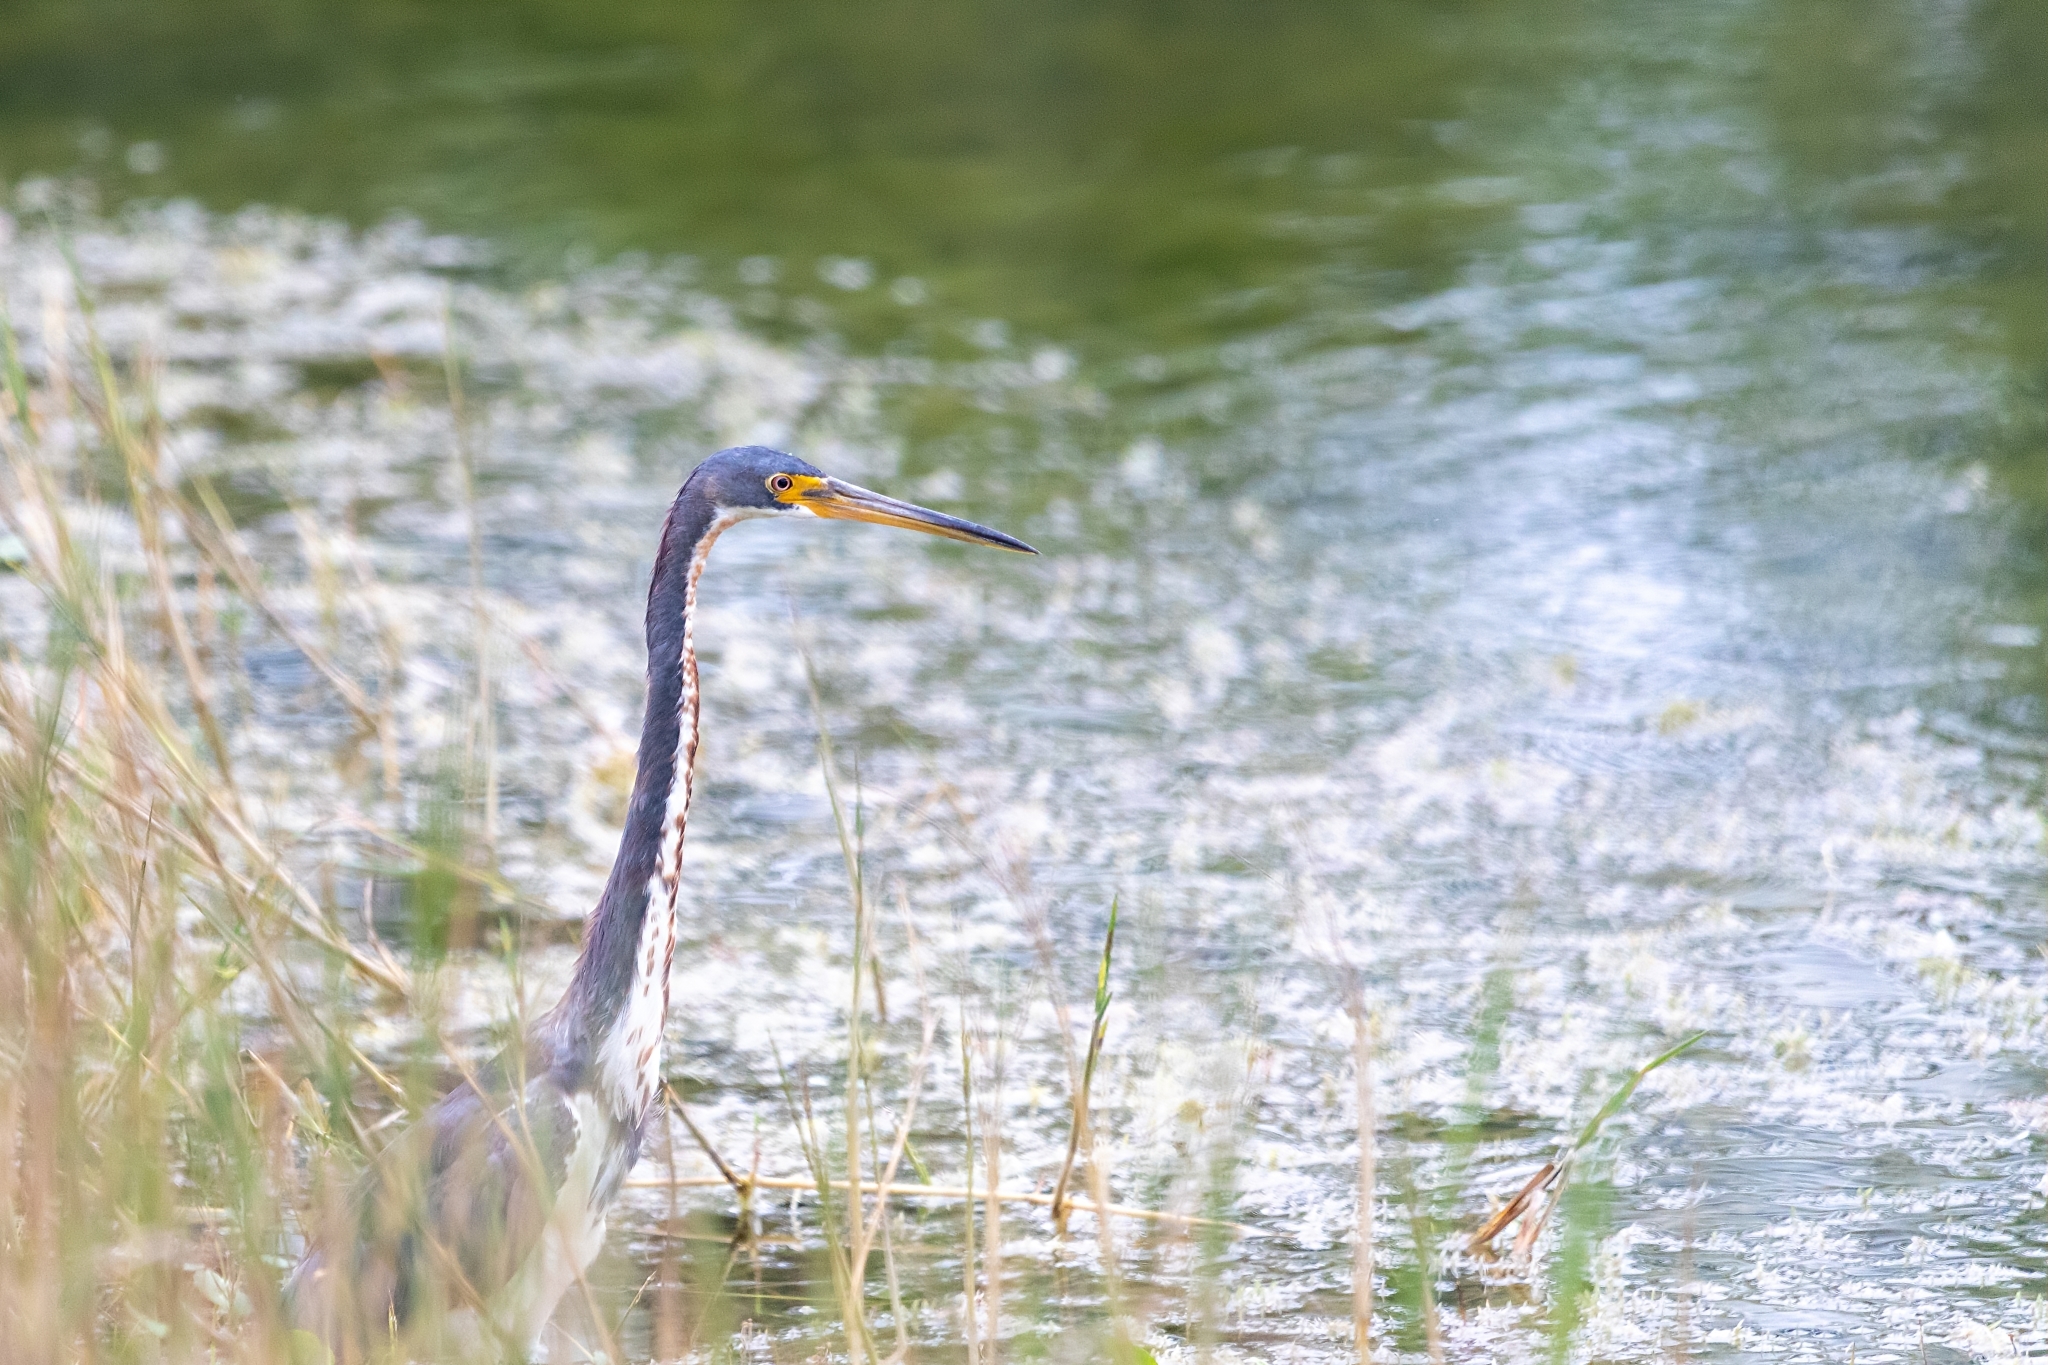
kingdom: Animalia
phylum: Chordata
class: Aves
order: Pelecaniformes
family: Ardeidae
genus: Egretta
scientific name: Egretta tricolor
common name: Tricolored heron
